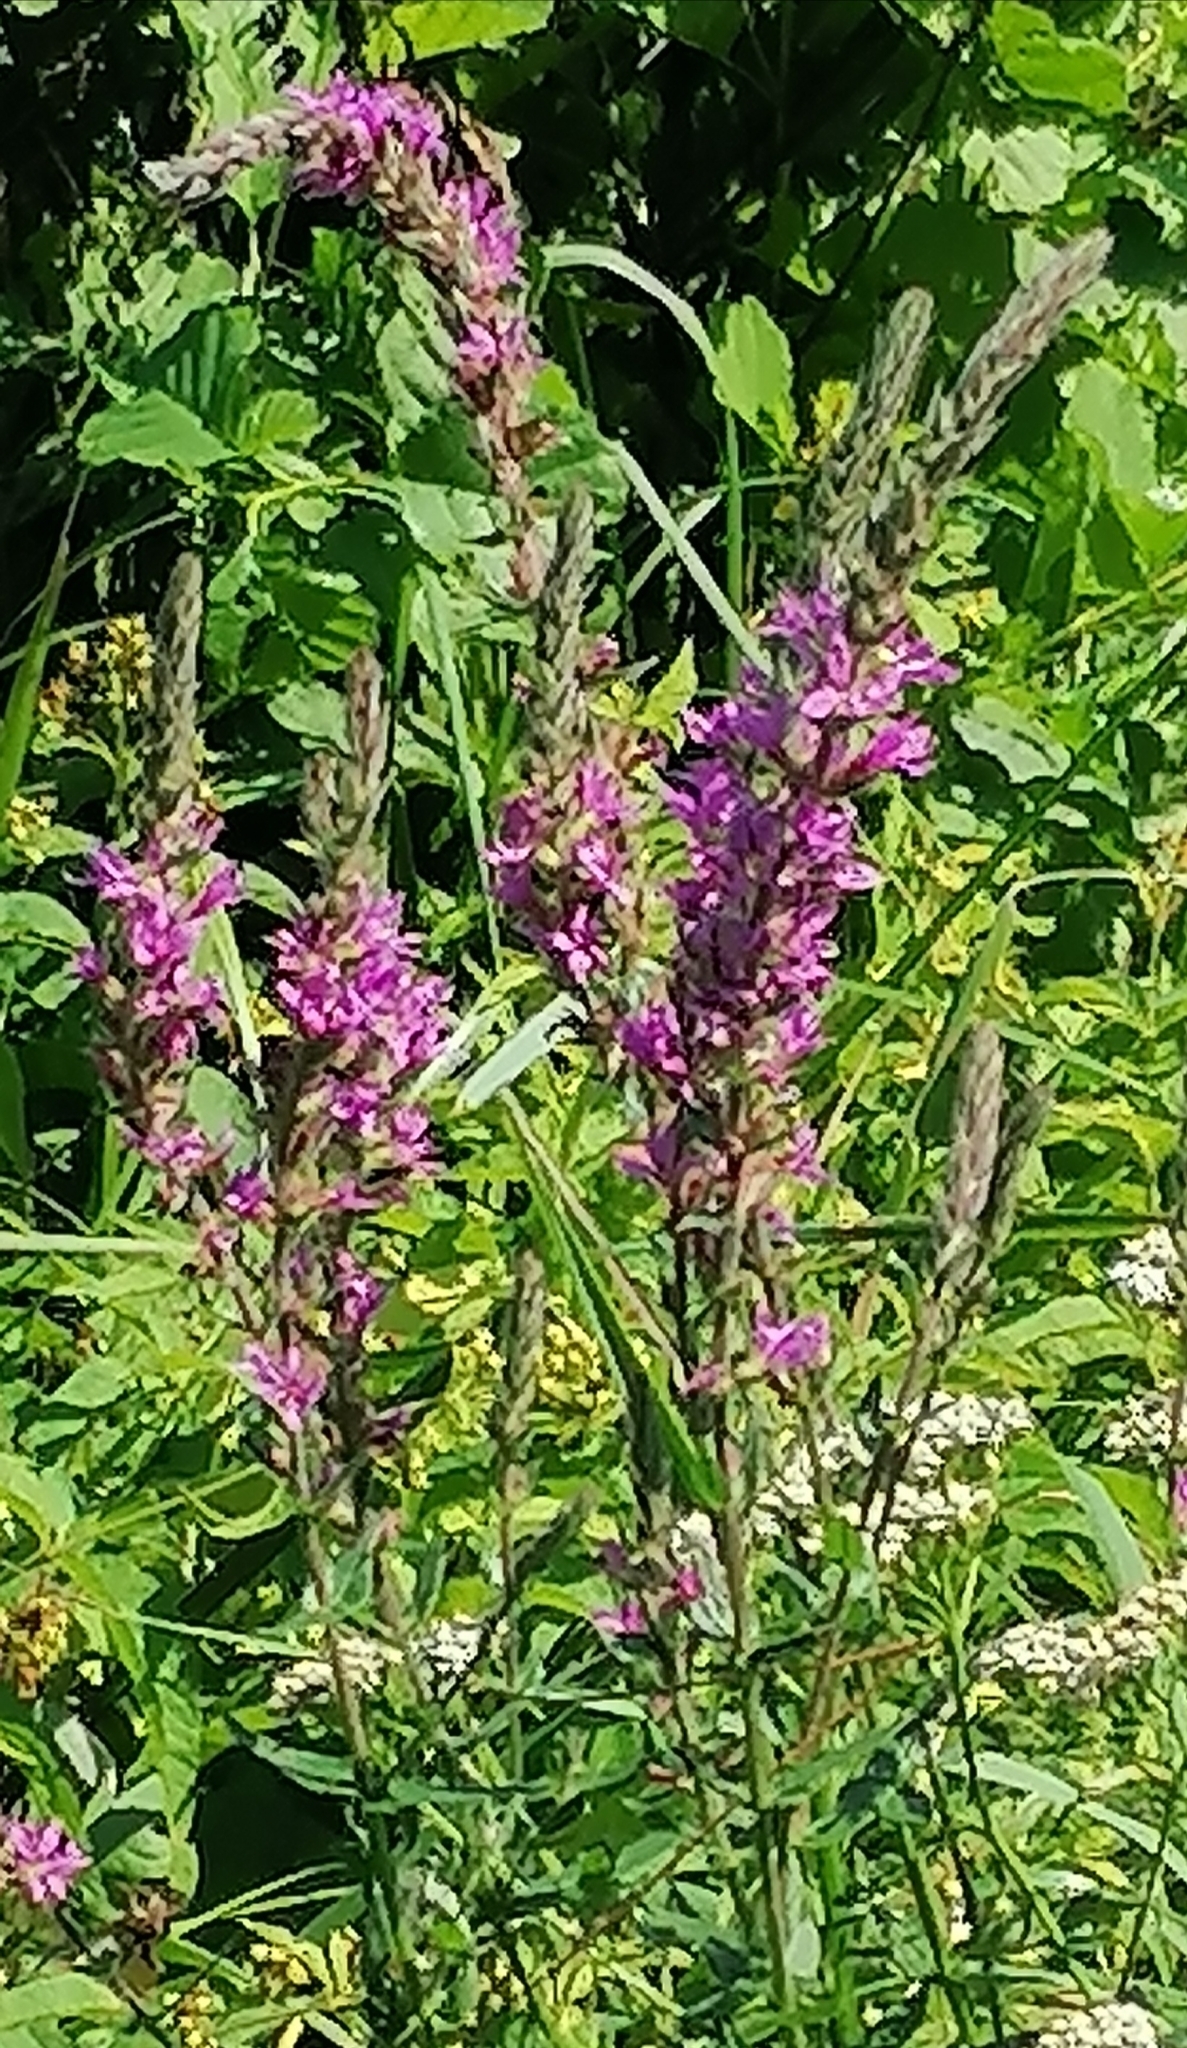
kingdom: Plantae
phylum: Tracheophyta
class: Magnoliopsida
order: Myrtales
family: Lythraceae
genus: Lythrum
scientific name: Lythrum salicaria
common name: Purple loosestrife
